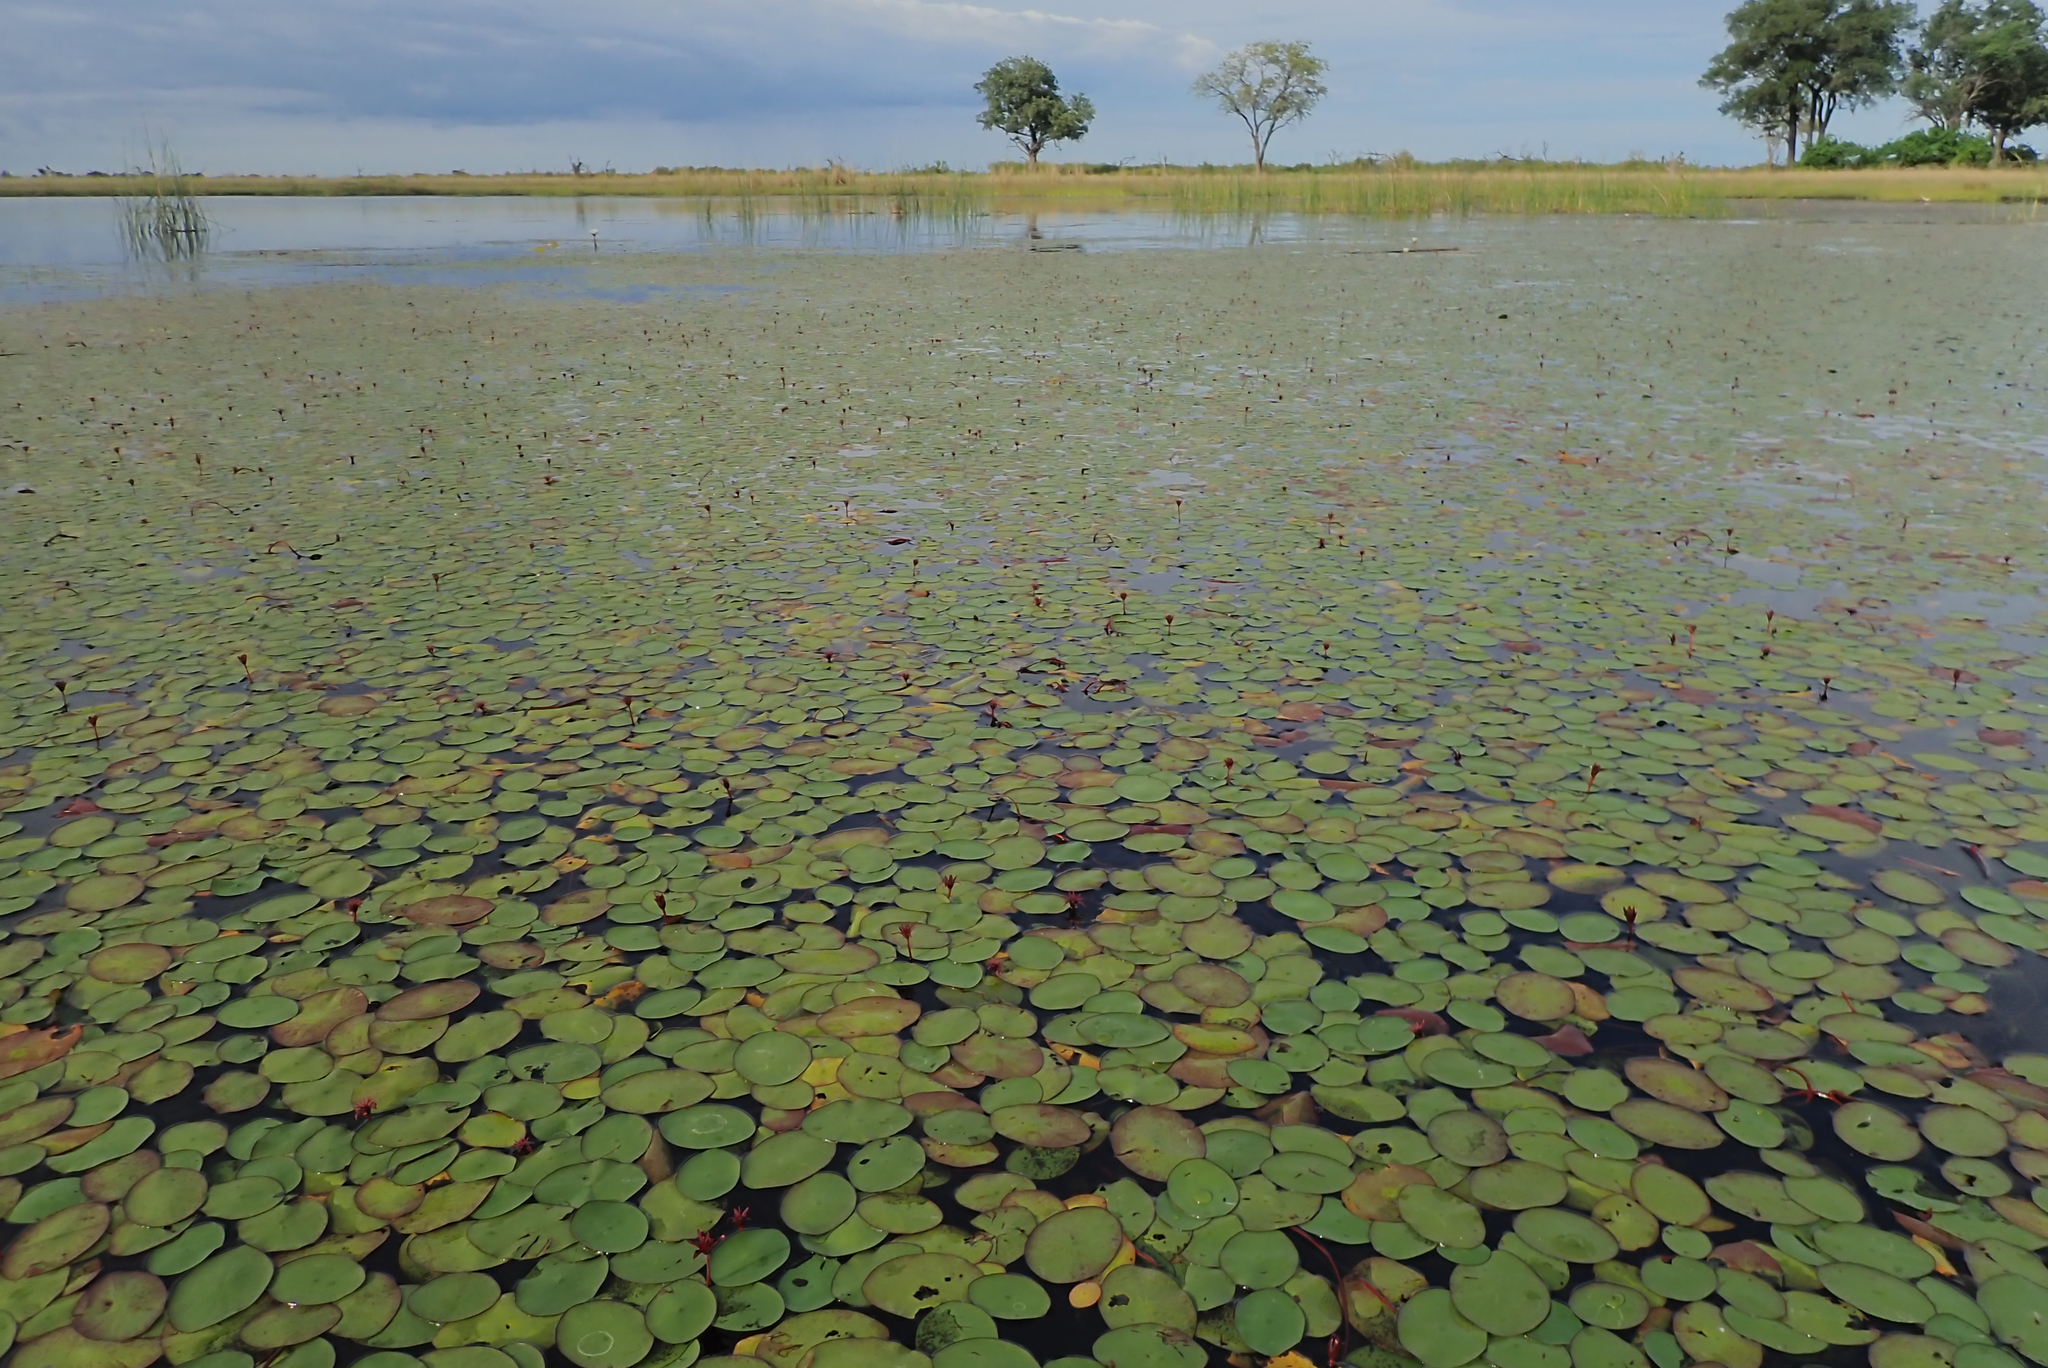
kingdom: Plantae
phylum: Tracheophyta
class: Magnoliopsida
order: Nymphaeales
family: Cabombaceae
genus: Brasenia
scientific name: Brasenia schreberi
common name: Water-shield
